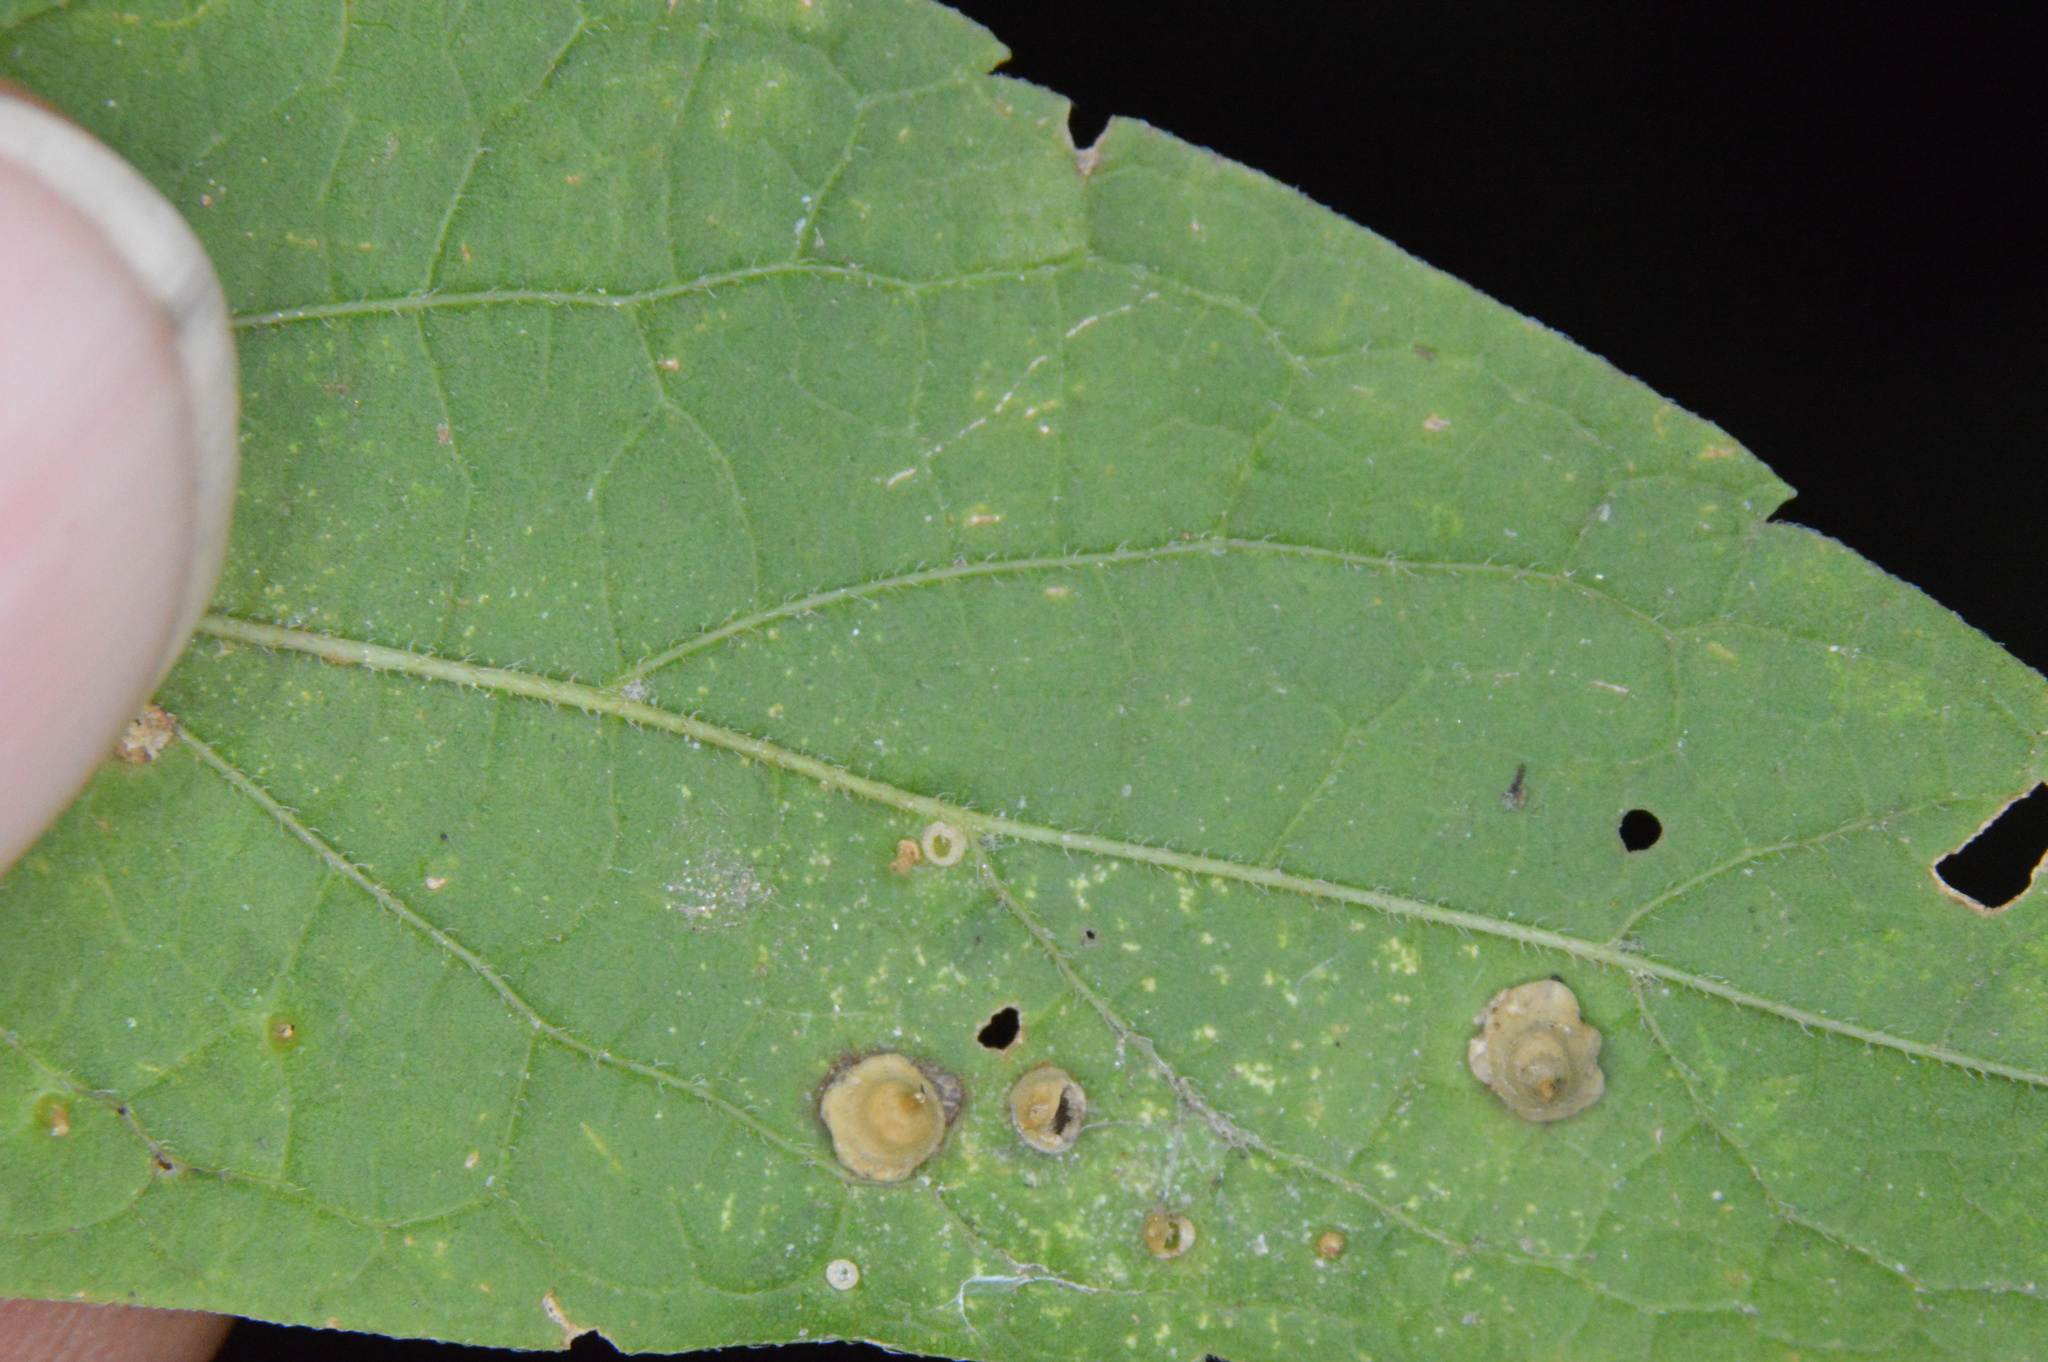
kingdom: Animalia
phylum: Arthropoda
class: Insecta
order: Diptera
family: Cecidomyiidae
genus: Celticecis
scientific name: Celticecis spiniformis
